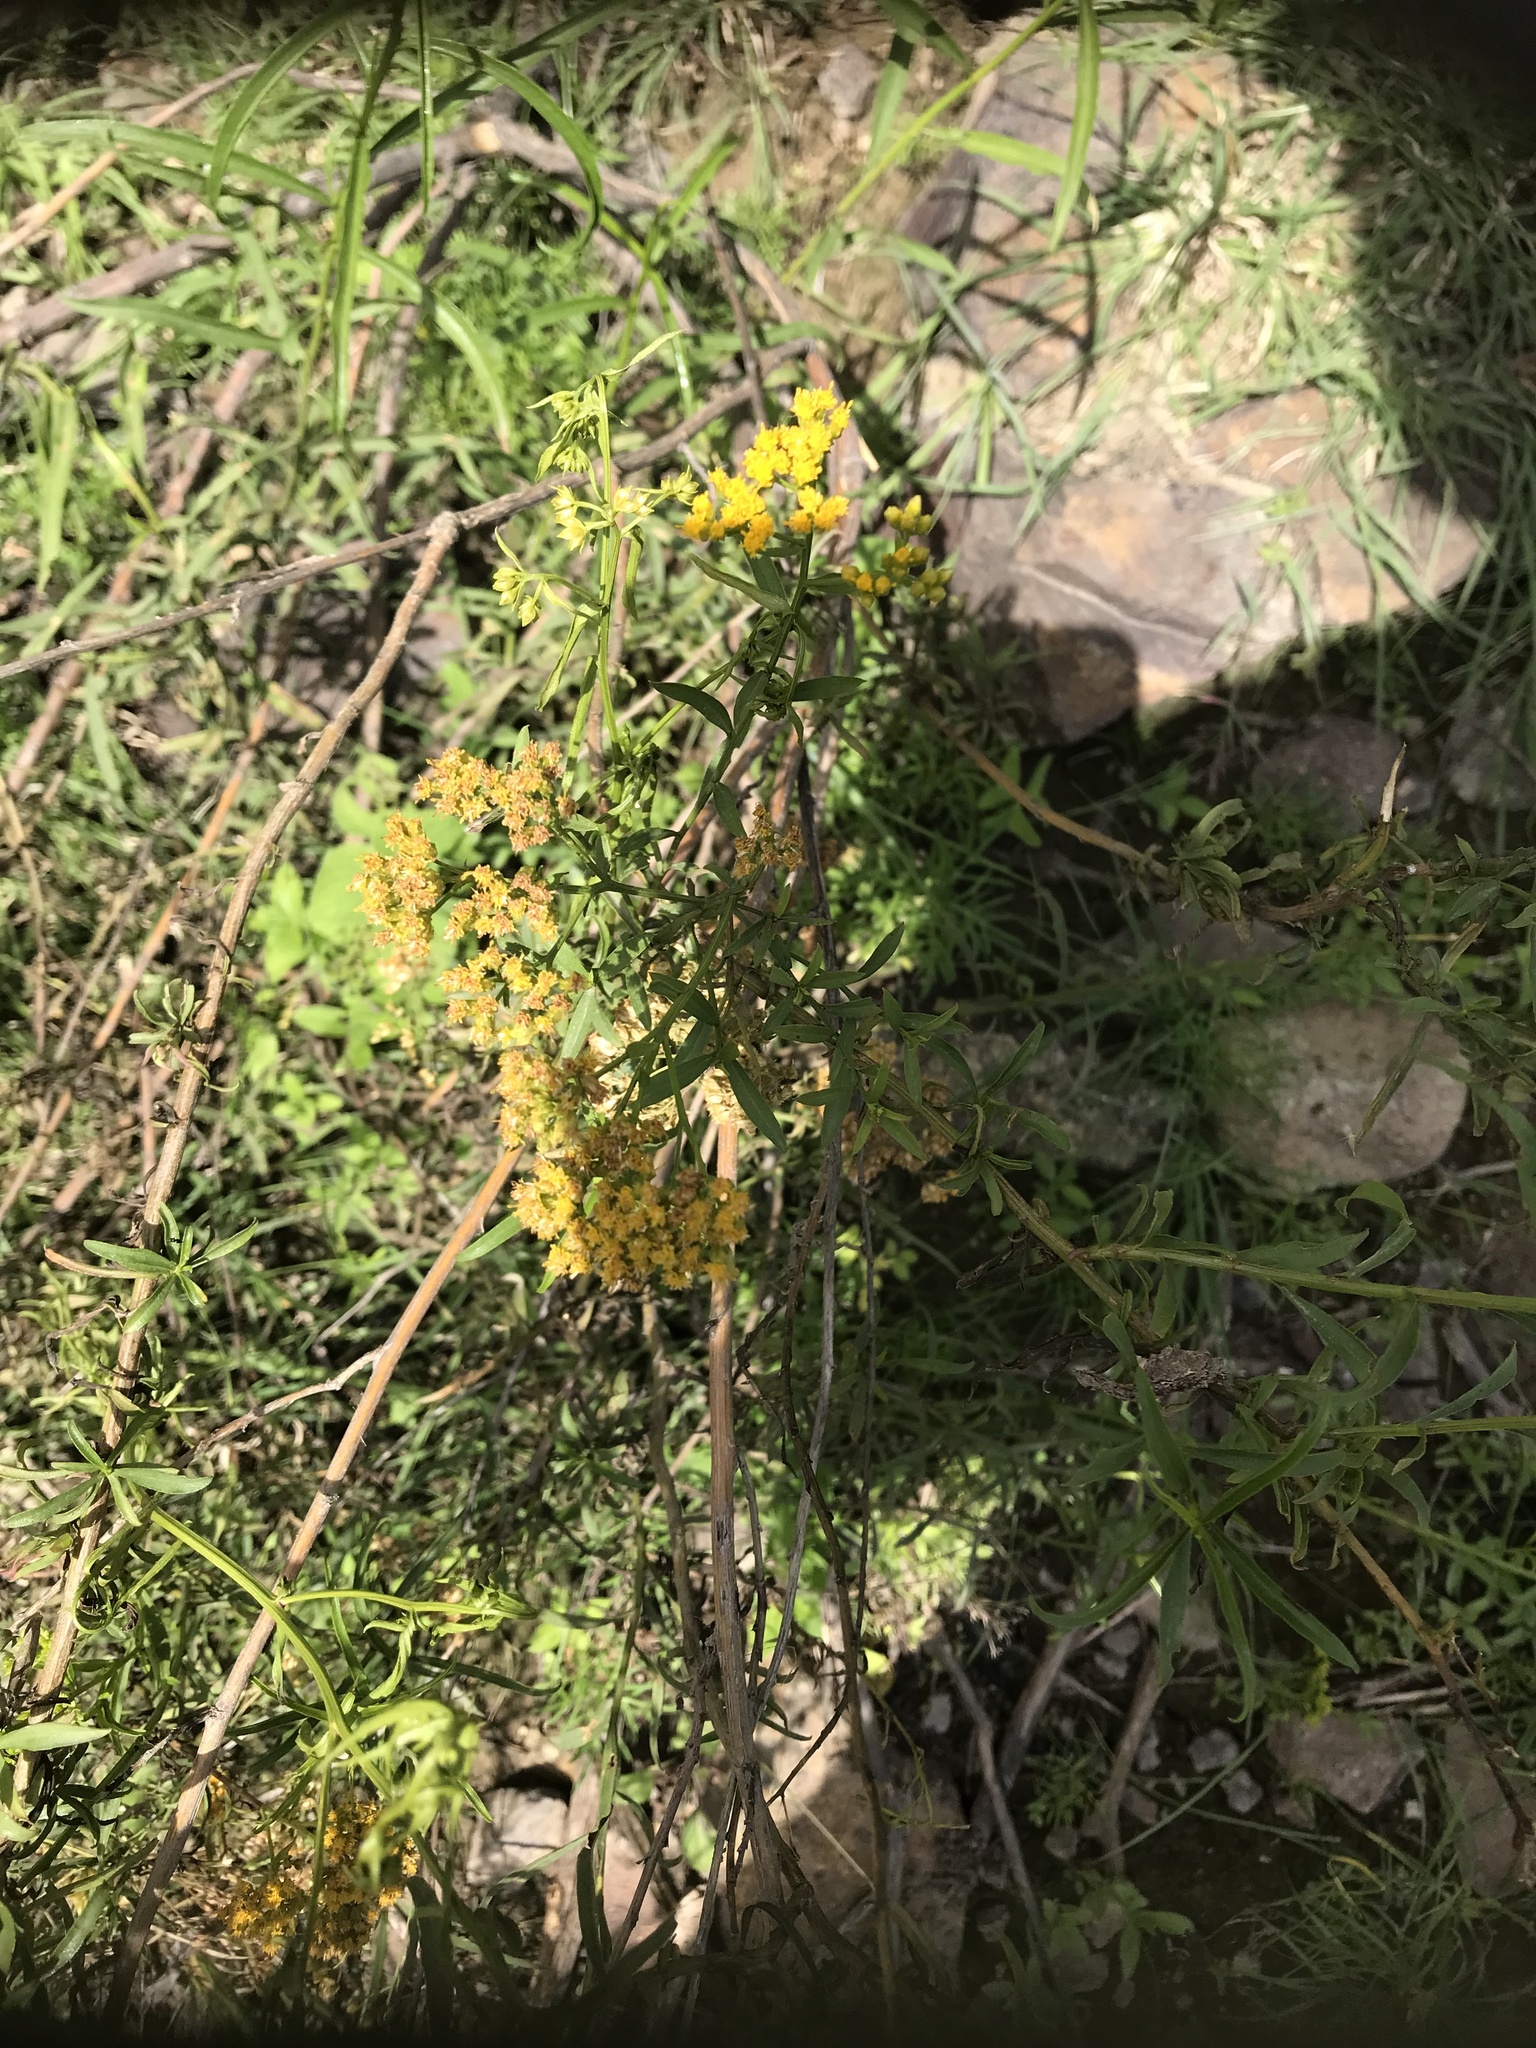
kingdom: Plantae
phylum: Tracheophyta
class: Magnoliopsida
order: Asterales
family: Asteraceae
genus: Gymnosperma
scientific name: Gymnosperma glutinosum
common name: Gumhead
